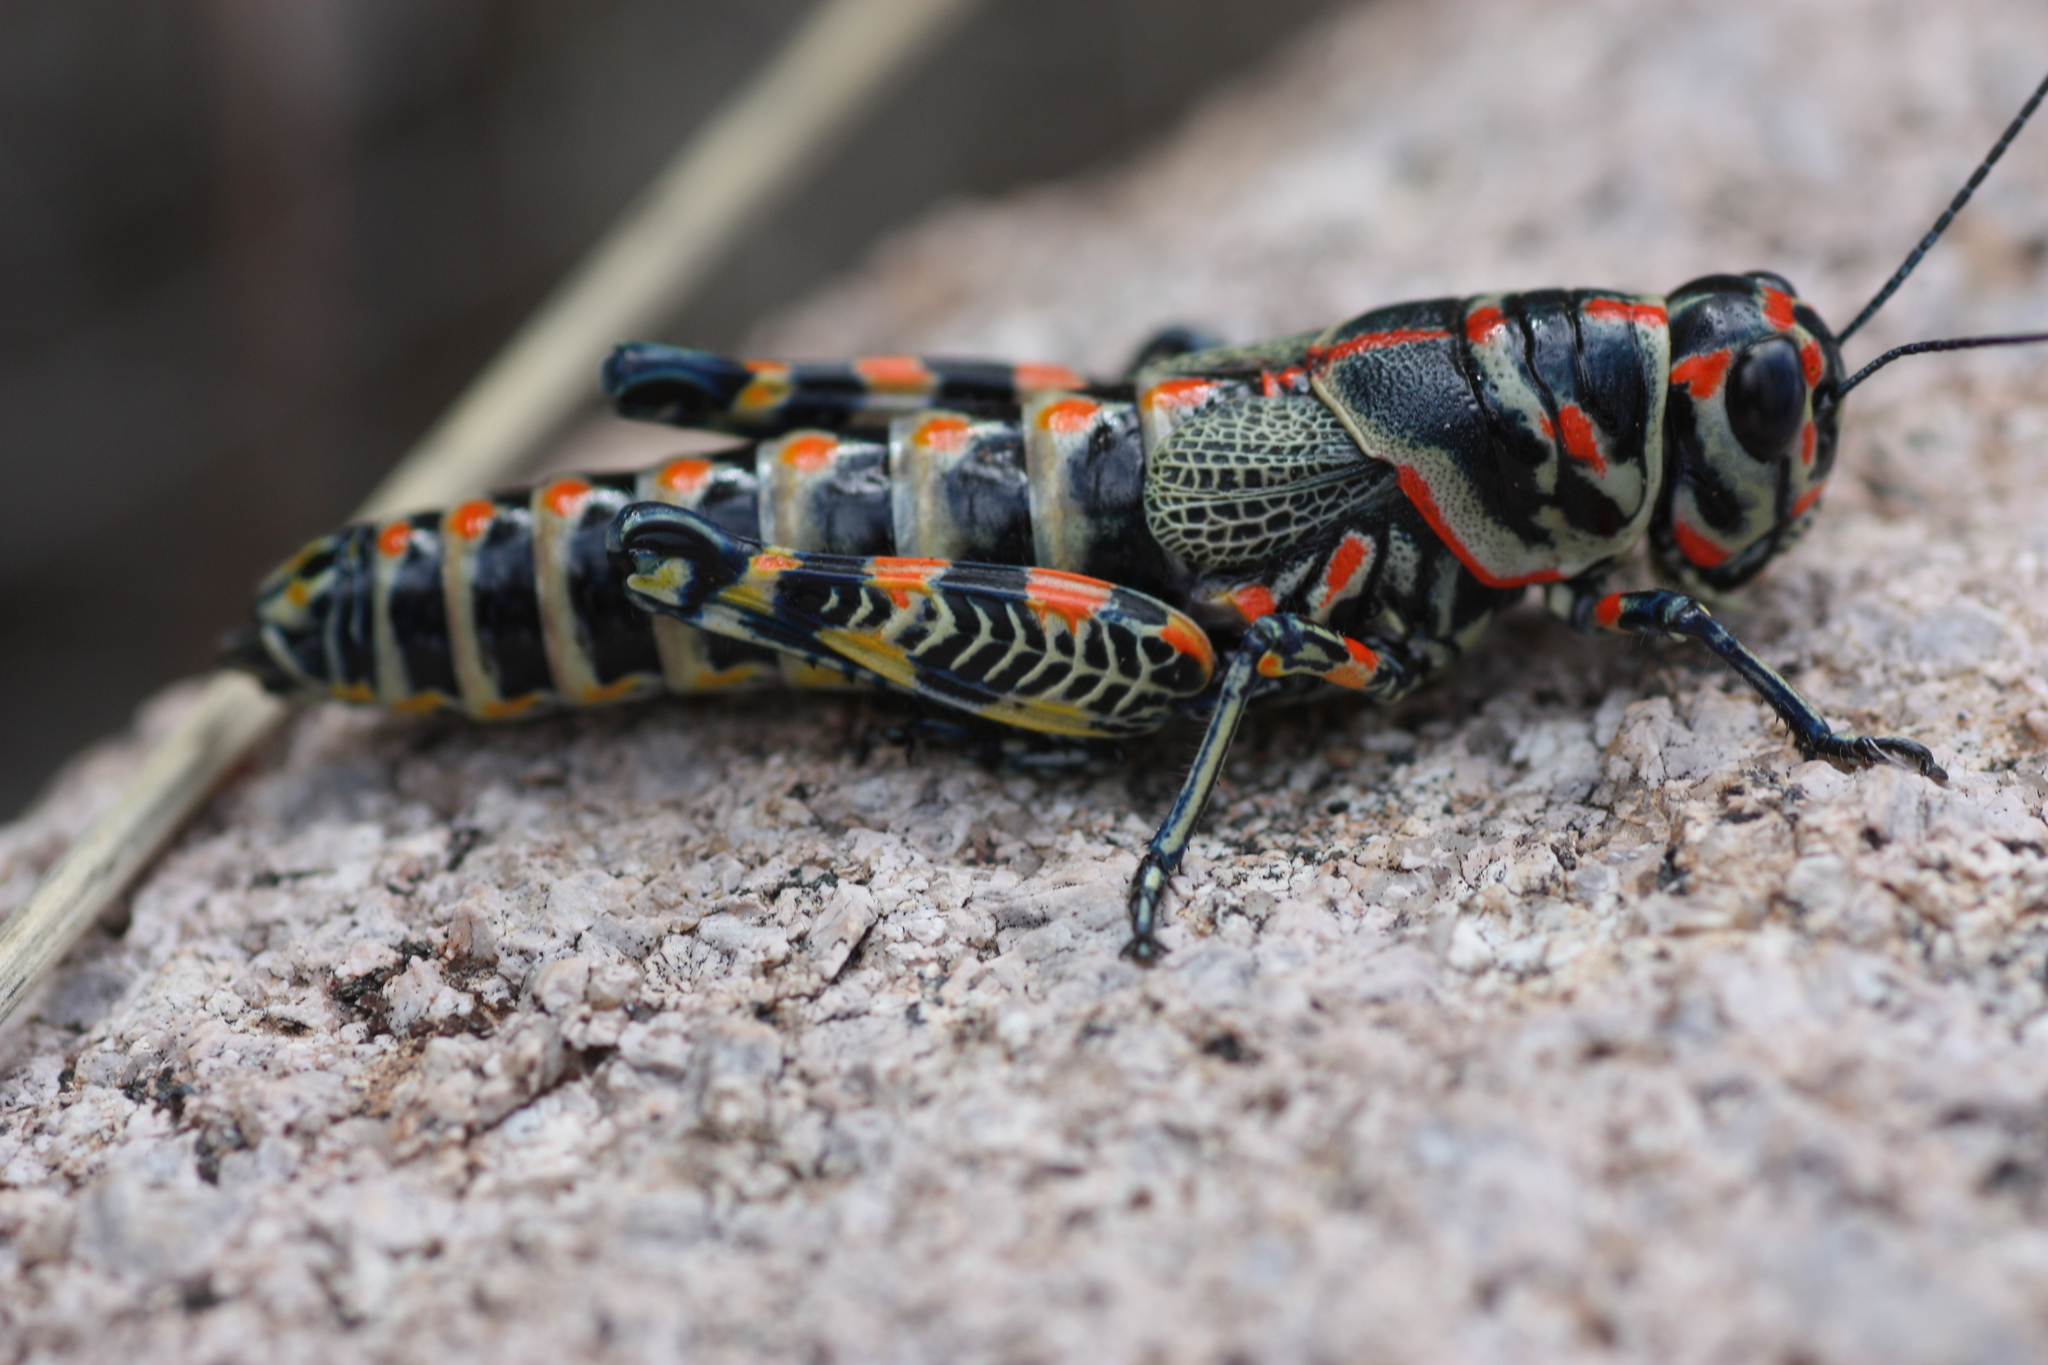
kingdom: Animalia
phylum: Arthropoda
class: Insecta
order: Orthoptera
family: Acrididae
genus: Dactylotum
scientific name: Dactylotum bicolor
